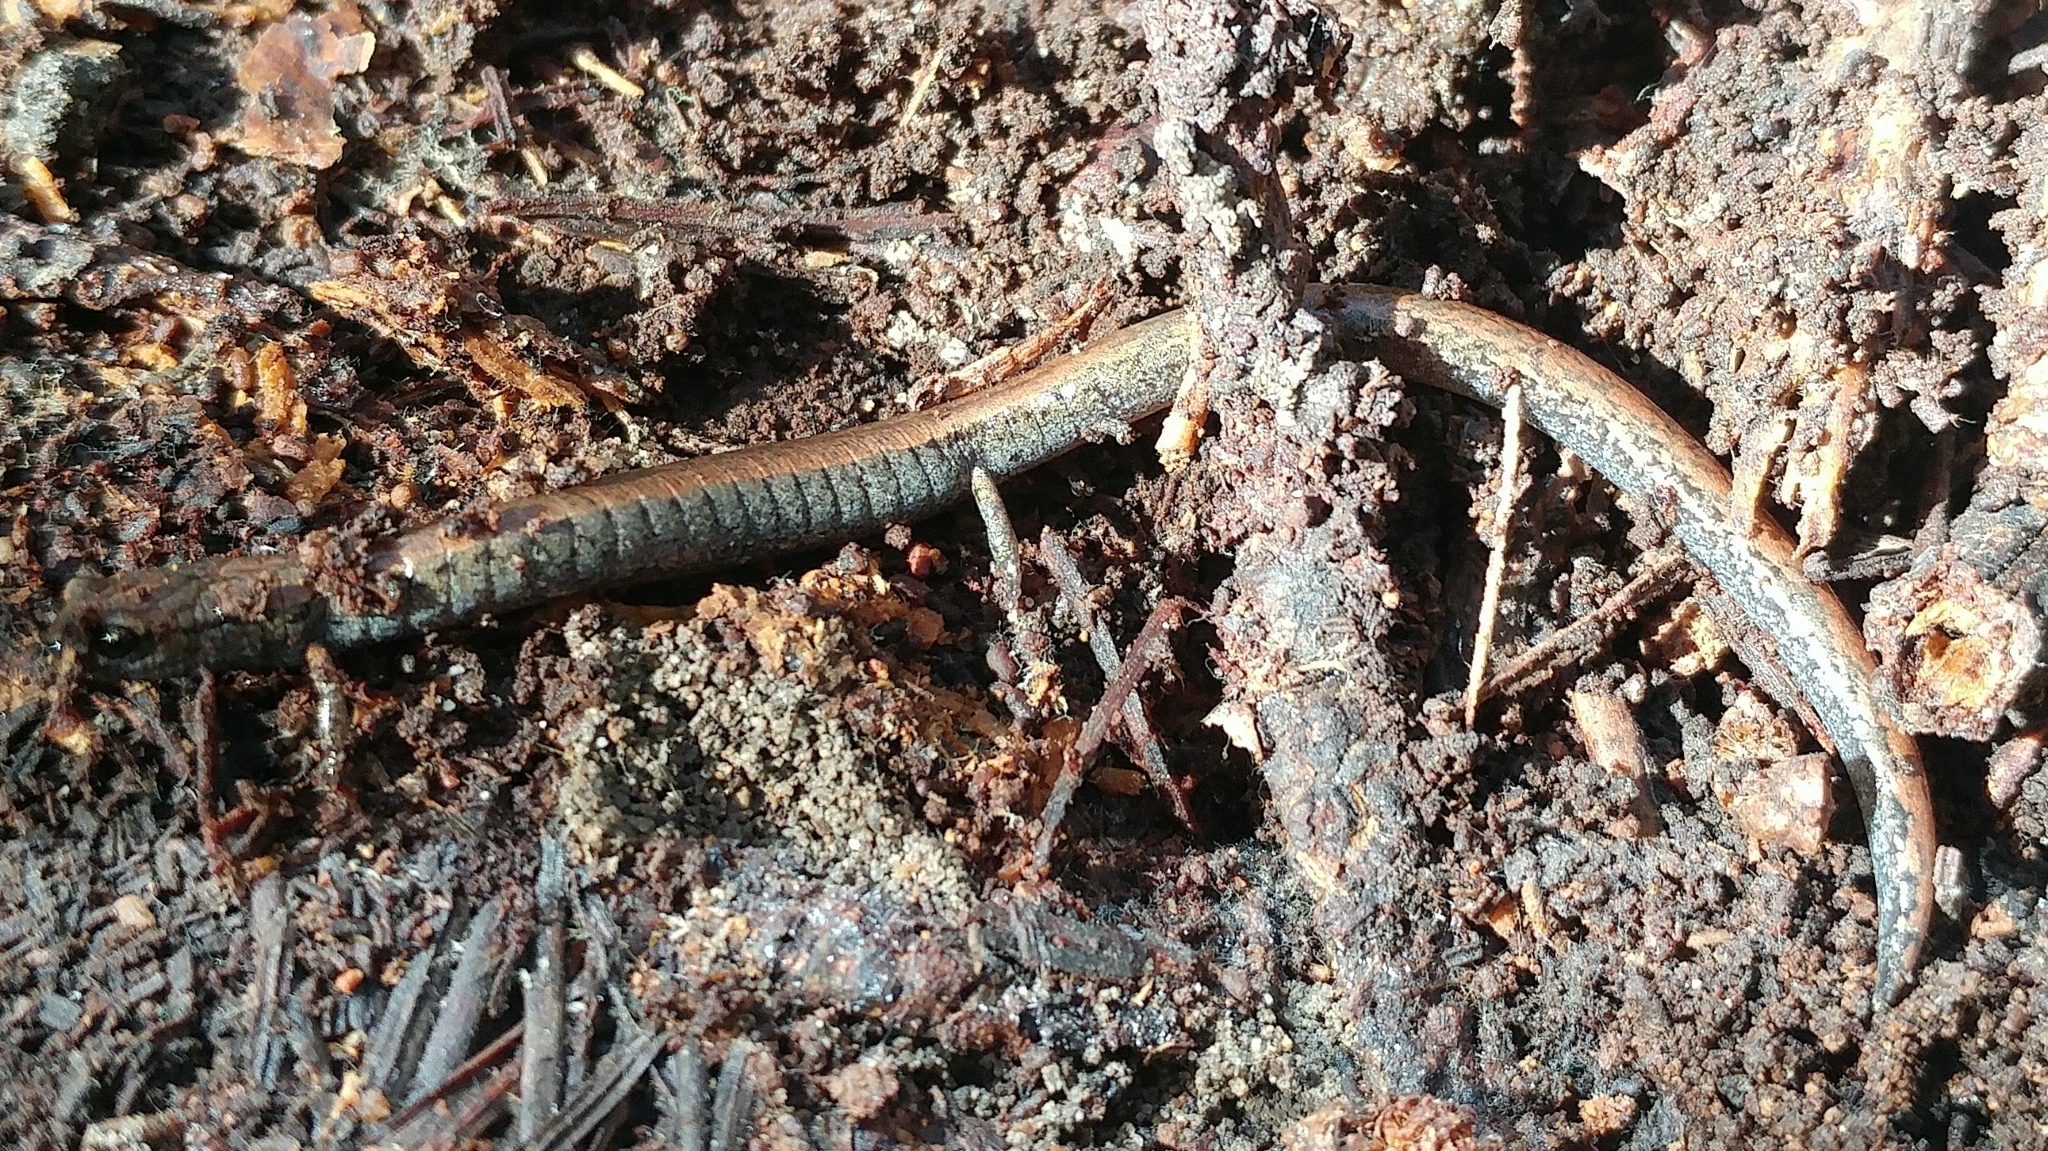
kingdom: Animalia
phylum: Chordata
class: Amphibia
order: Caudata
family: Plethodontidae
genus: Batrachoseps
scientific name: Batrachoseps nigriventris
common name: Black-bellied slender salamander
